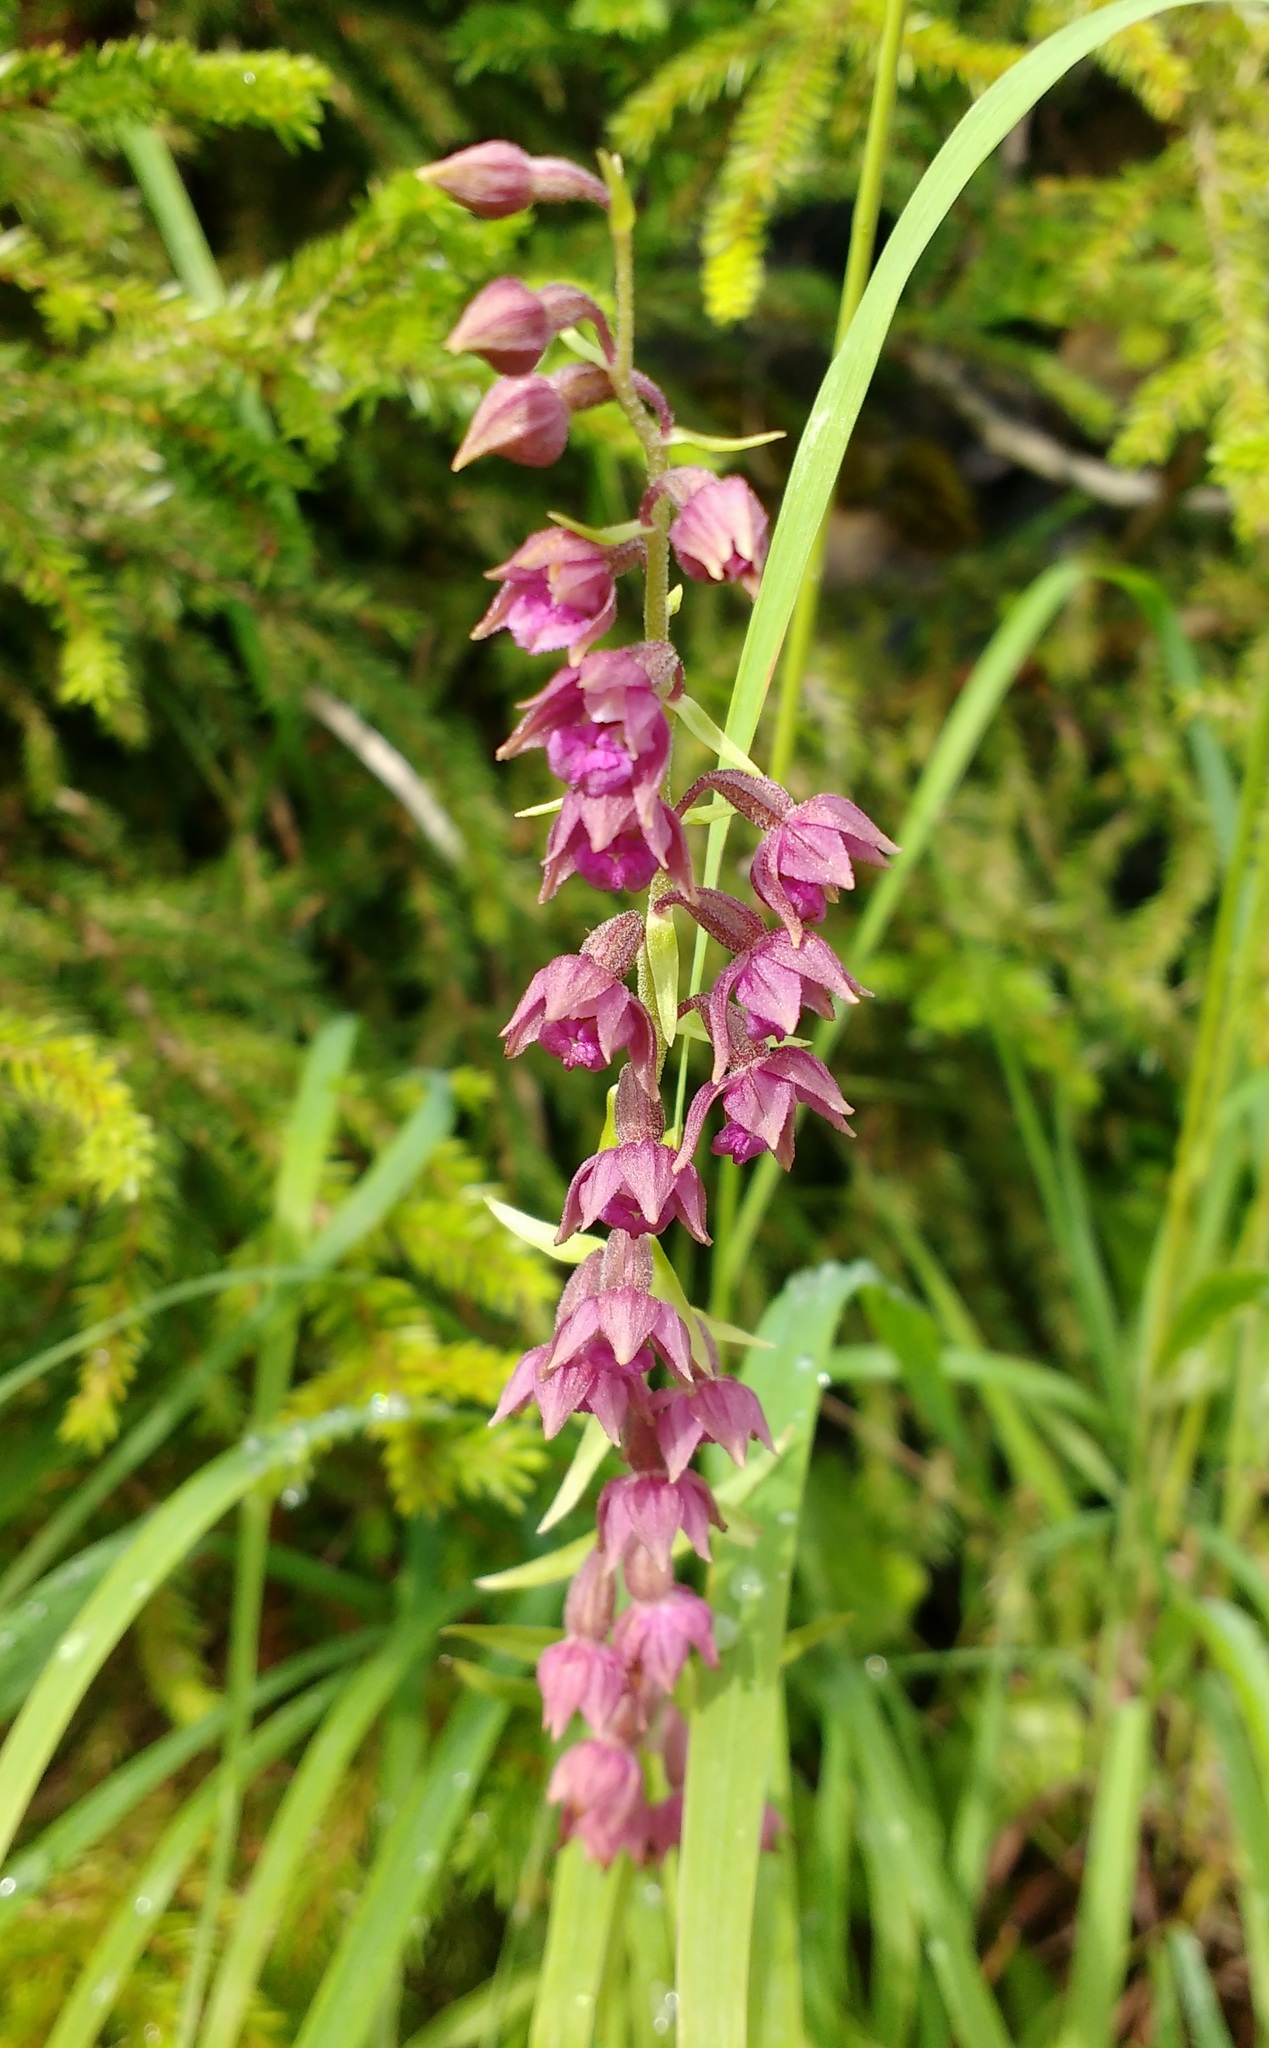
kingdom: Plantae
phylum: Tracheophyta
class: Liliopsida
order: Asparagales
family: Orchidaceae
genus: Epipactis
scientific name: Epipactis atrorubens
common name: Dark-red helleborine
